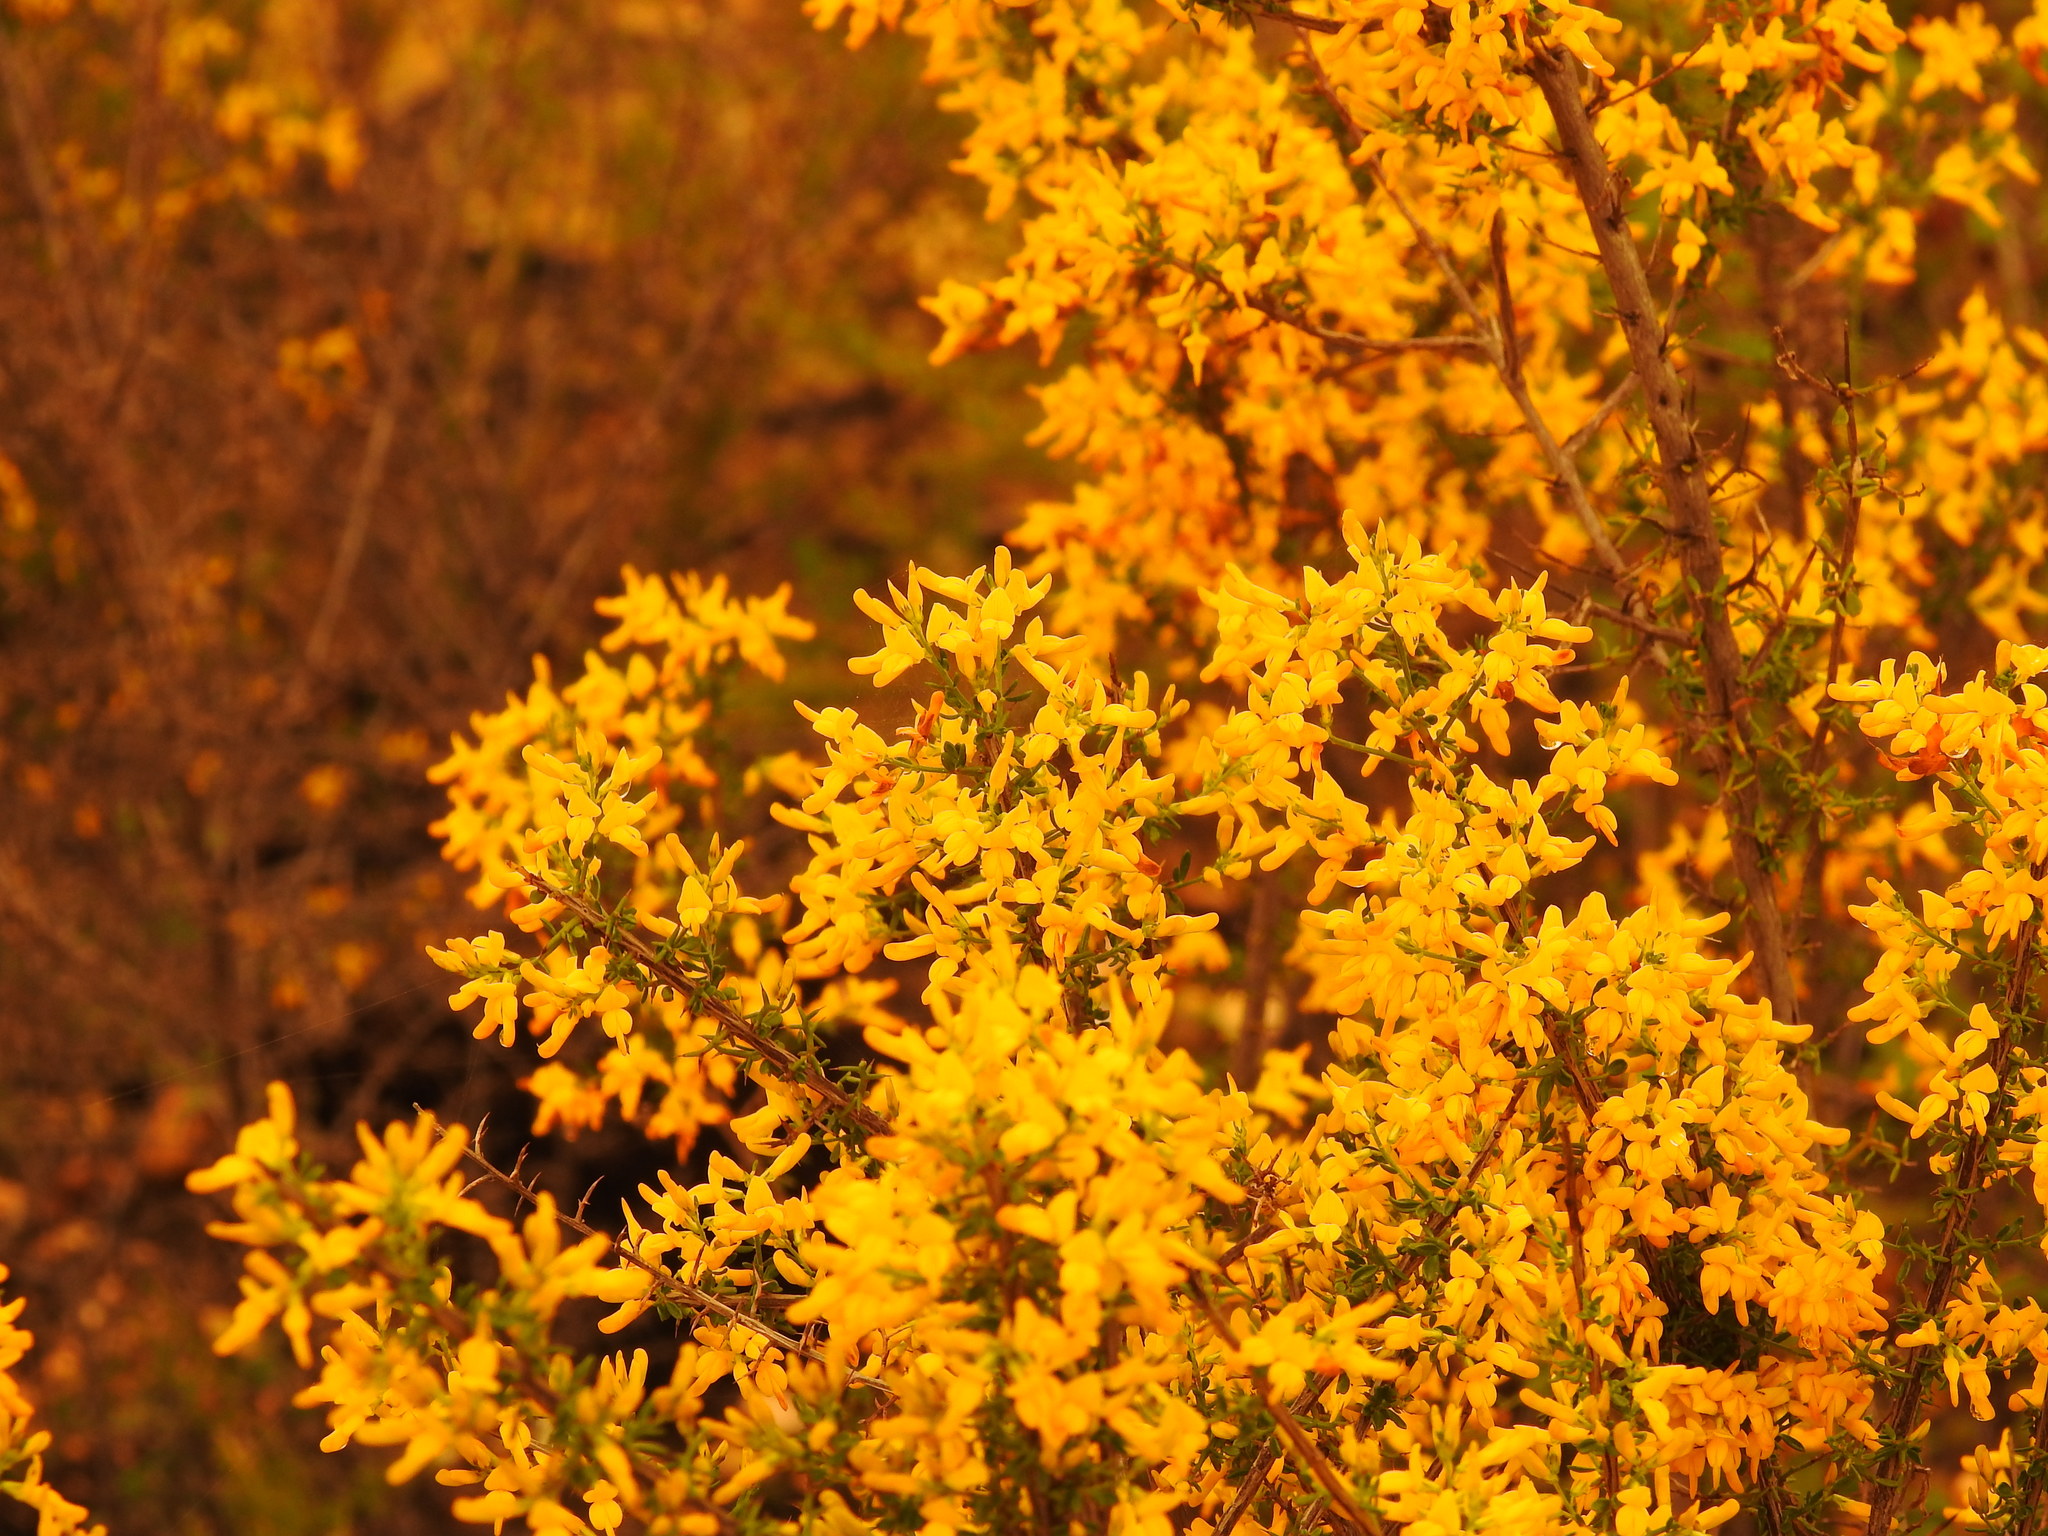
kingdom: Plantae
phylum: Tracheophyta
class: Magnoliopsida
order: Fabales
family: Fabaceae
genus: Genista
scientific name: Genista triacanthos
